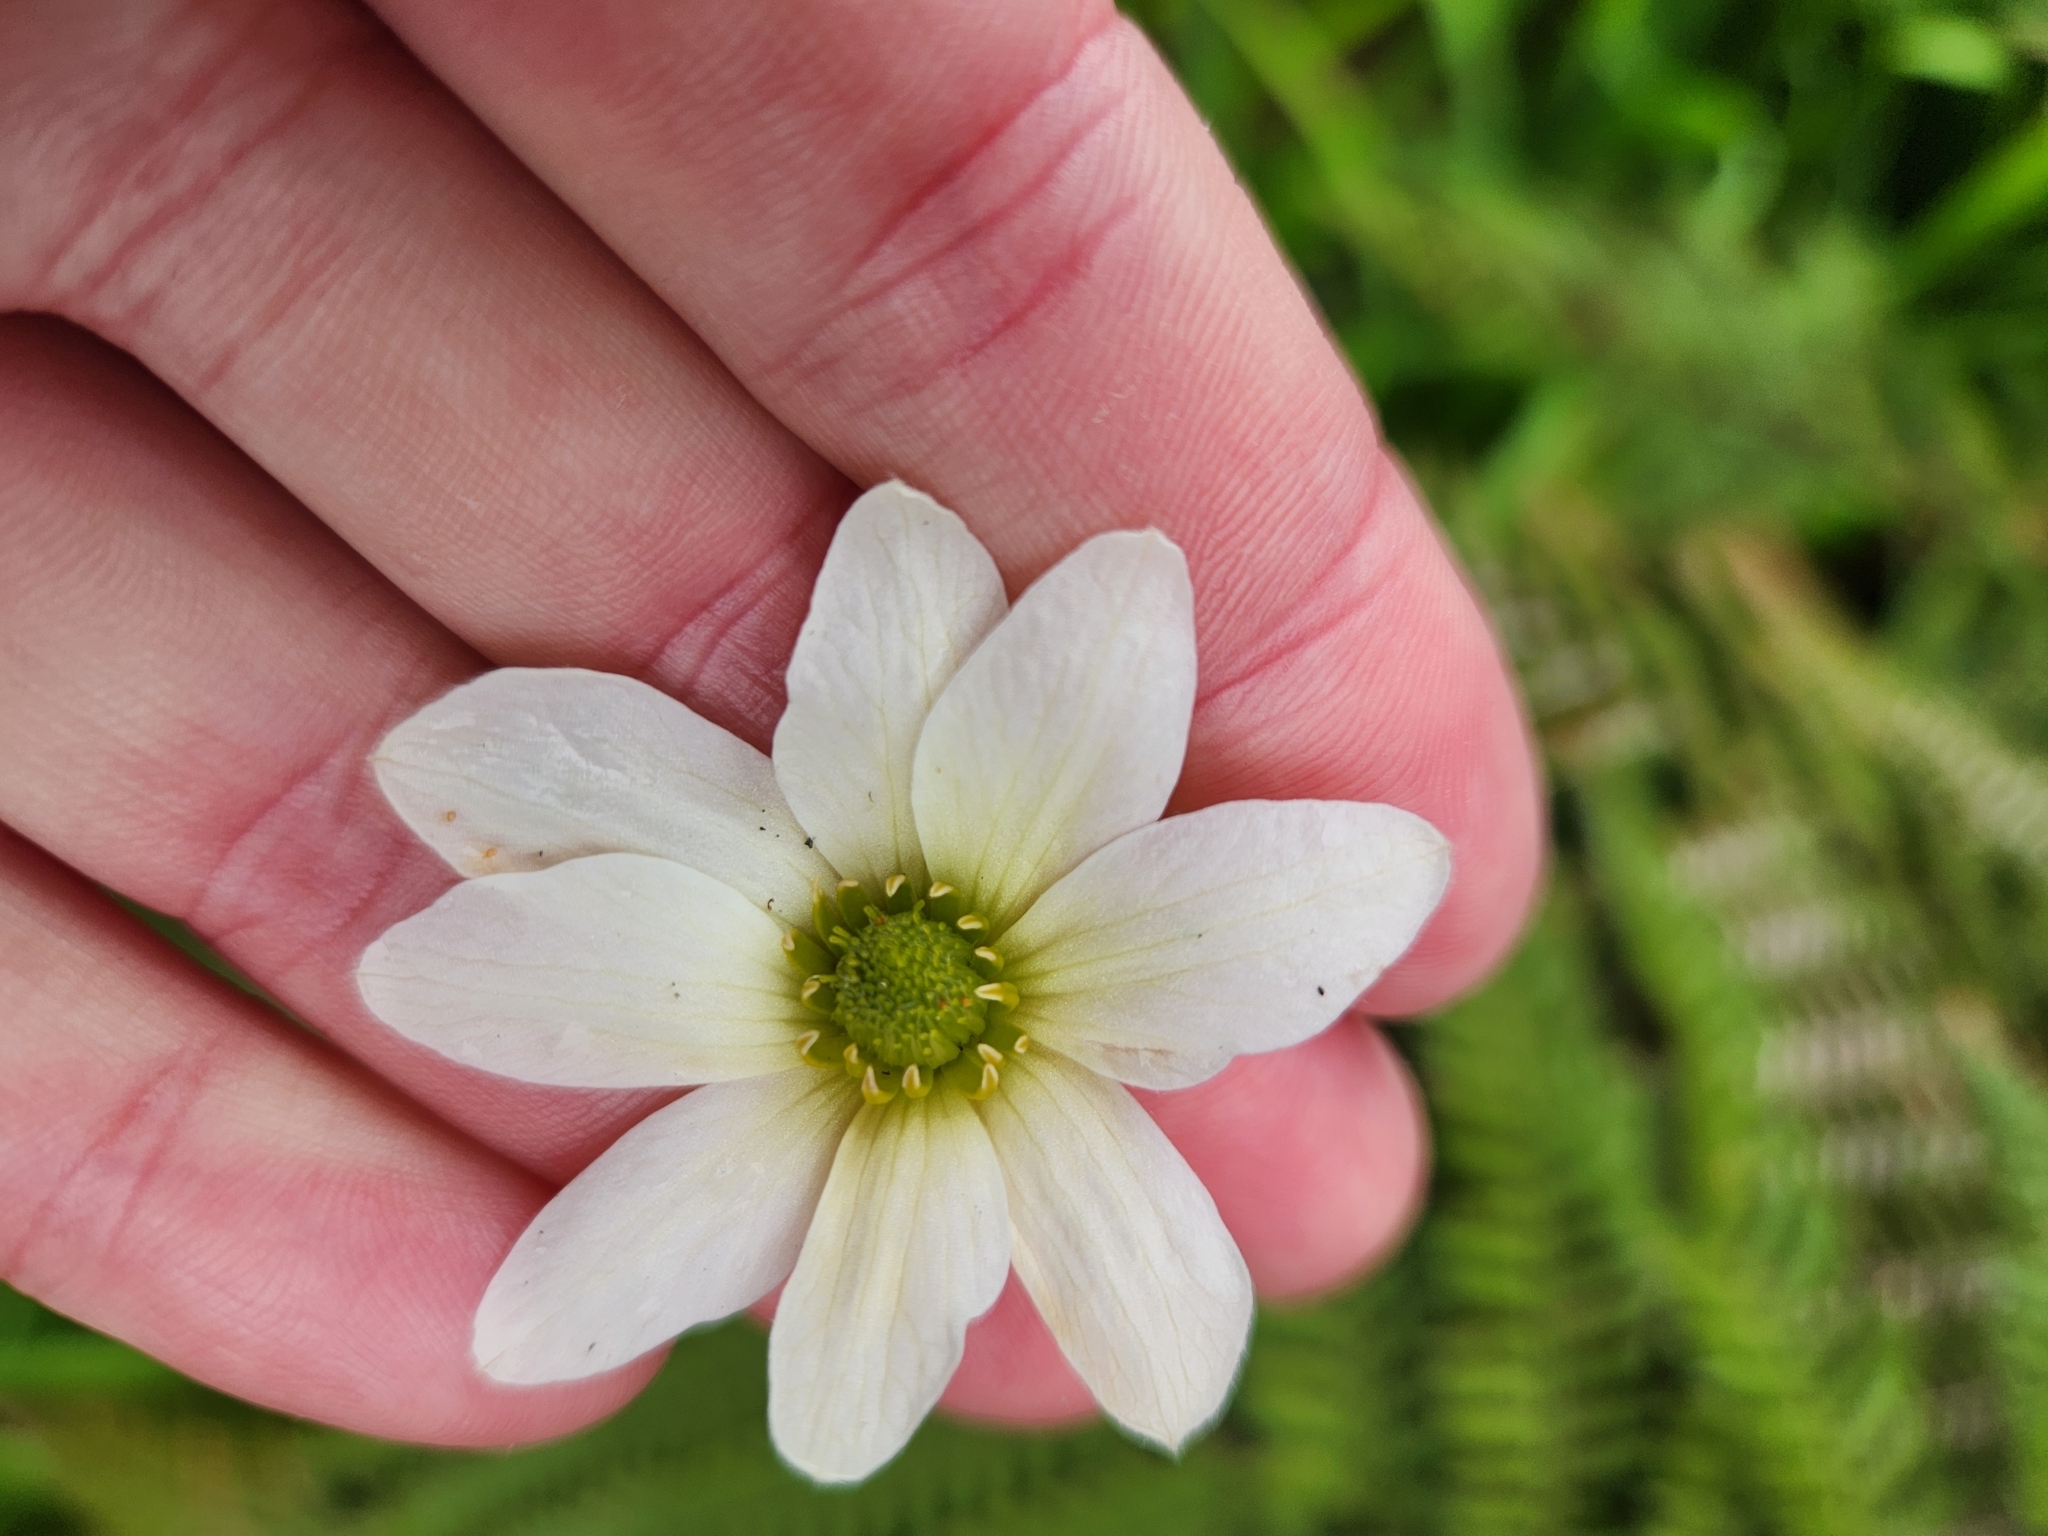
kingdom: Plantae
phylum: Tracheophyta
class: Magnoliopsida
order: Ranunculales
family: Ranunculaceae
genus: Clematis
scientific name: Clematis paniculata
